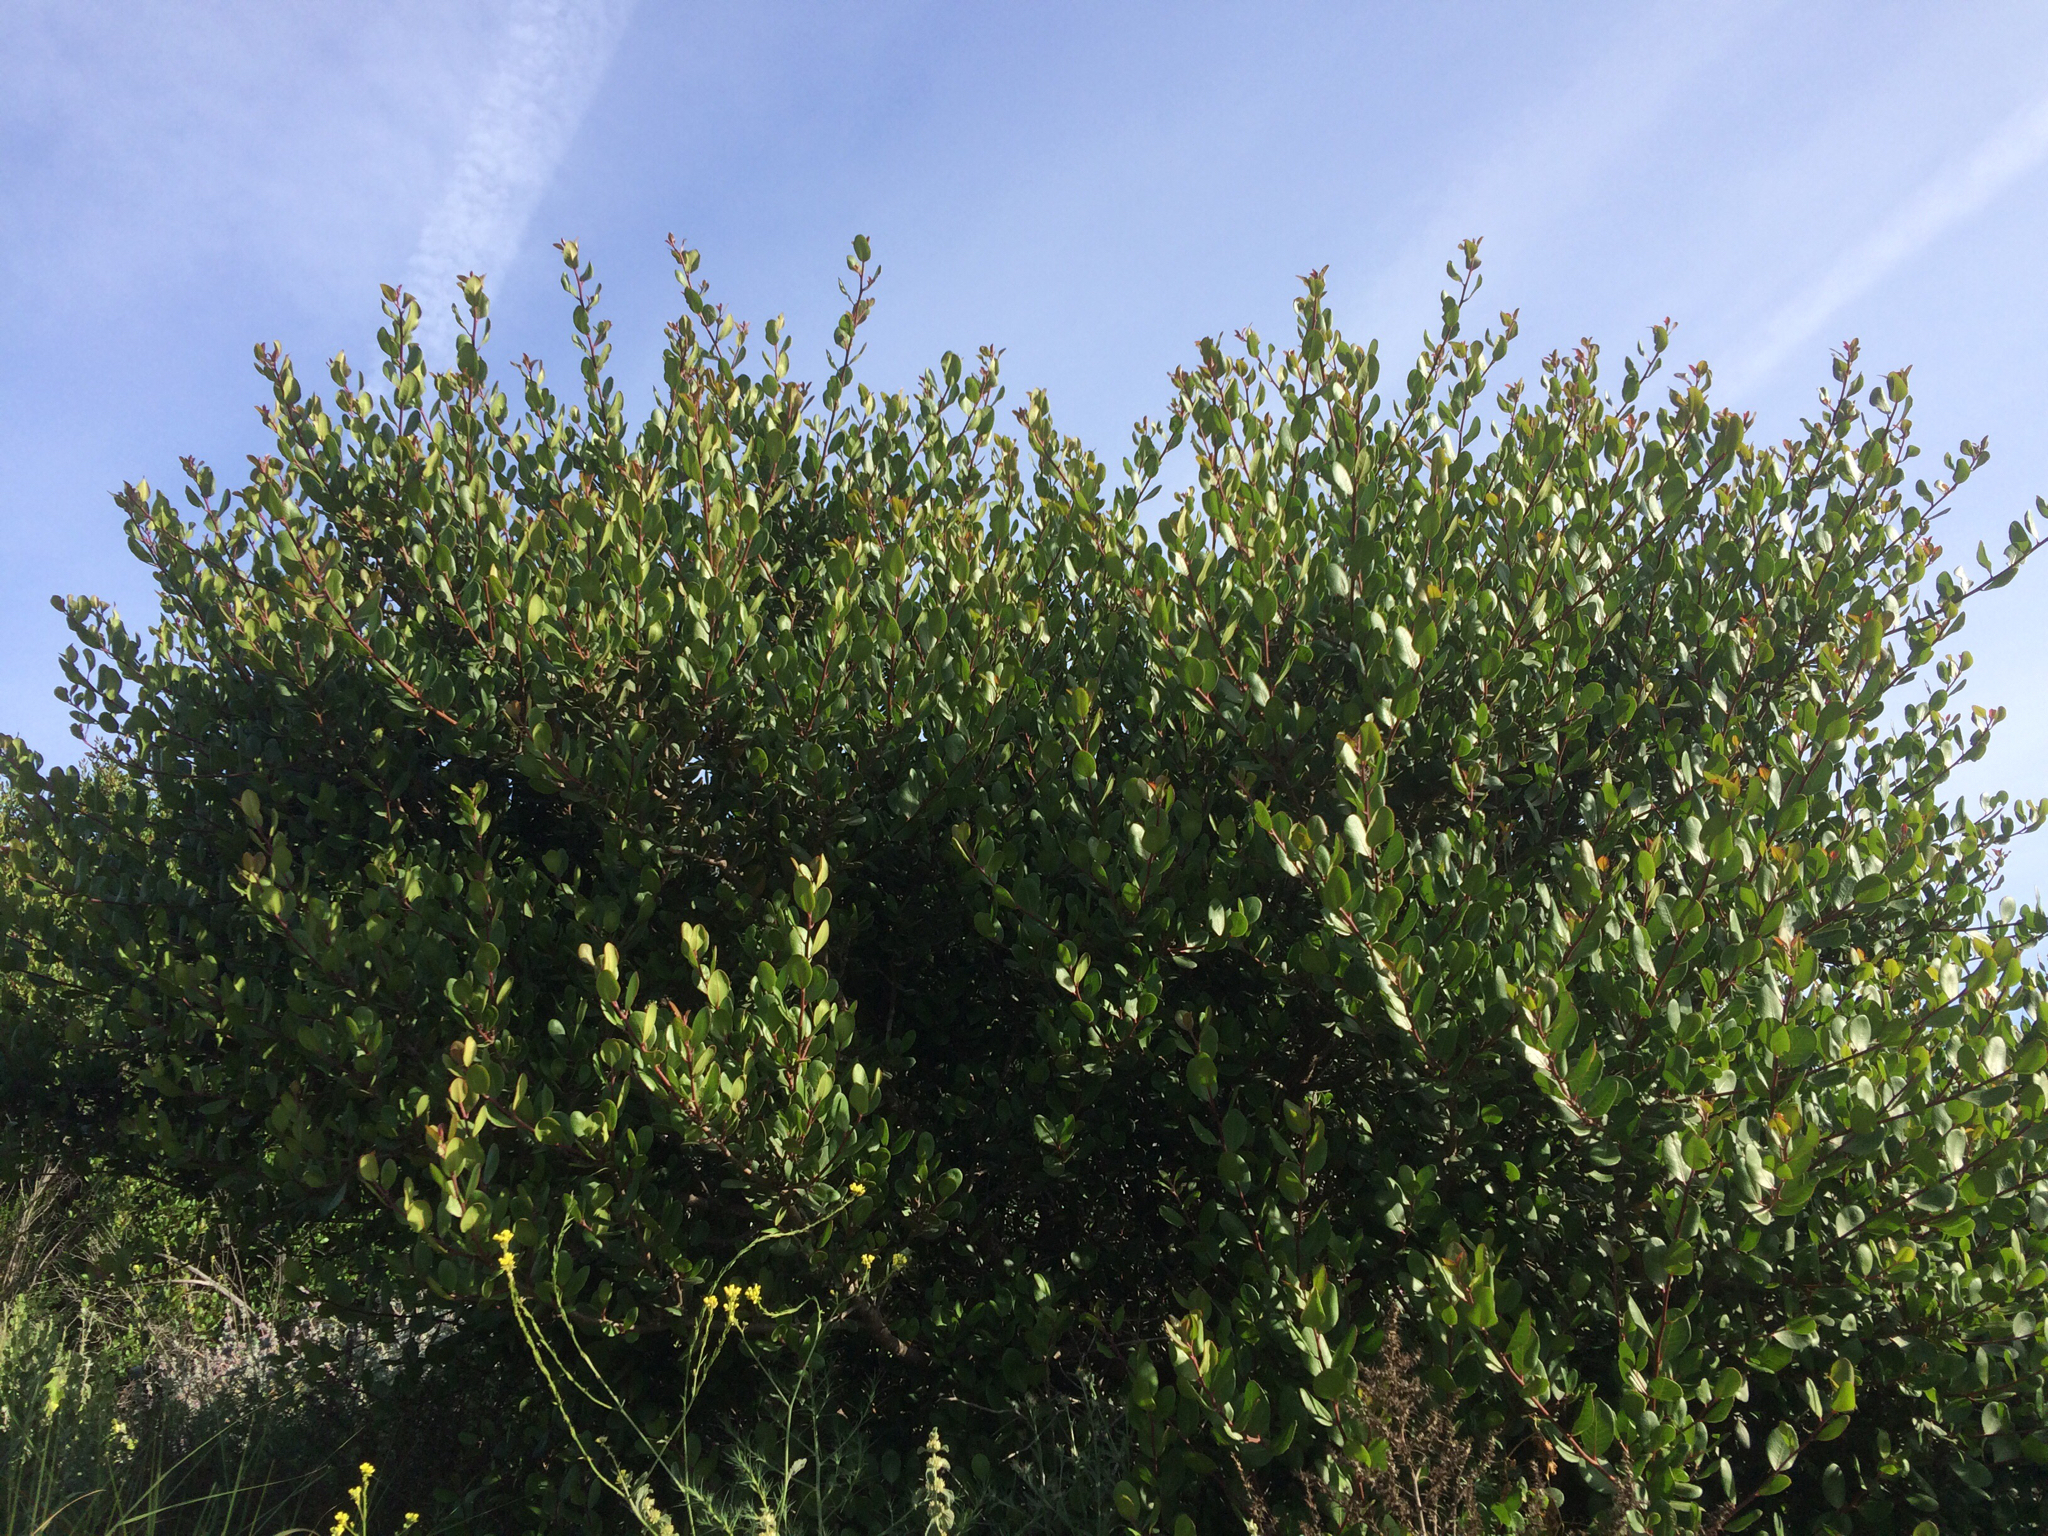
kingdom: Plantae
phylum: Tracheophyta
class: Magnoliopsida
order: Sapindales
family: Anacardiaceae
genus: Rhus
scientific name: Rhus integrifolia
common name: Lemonade sumac
